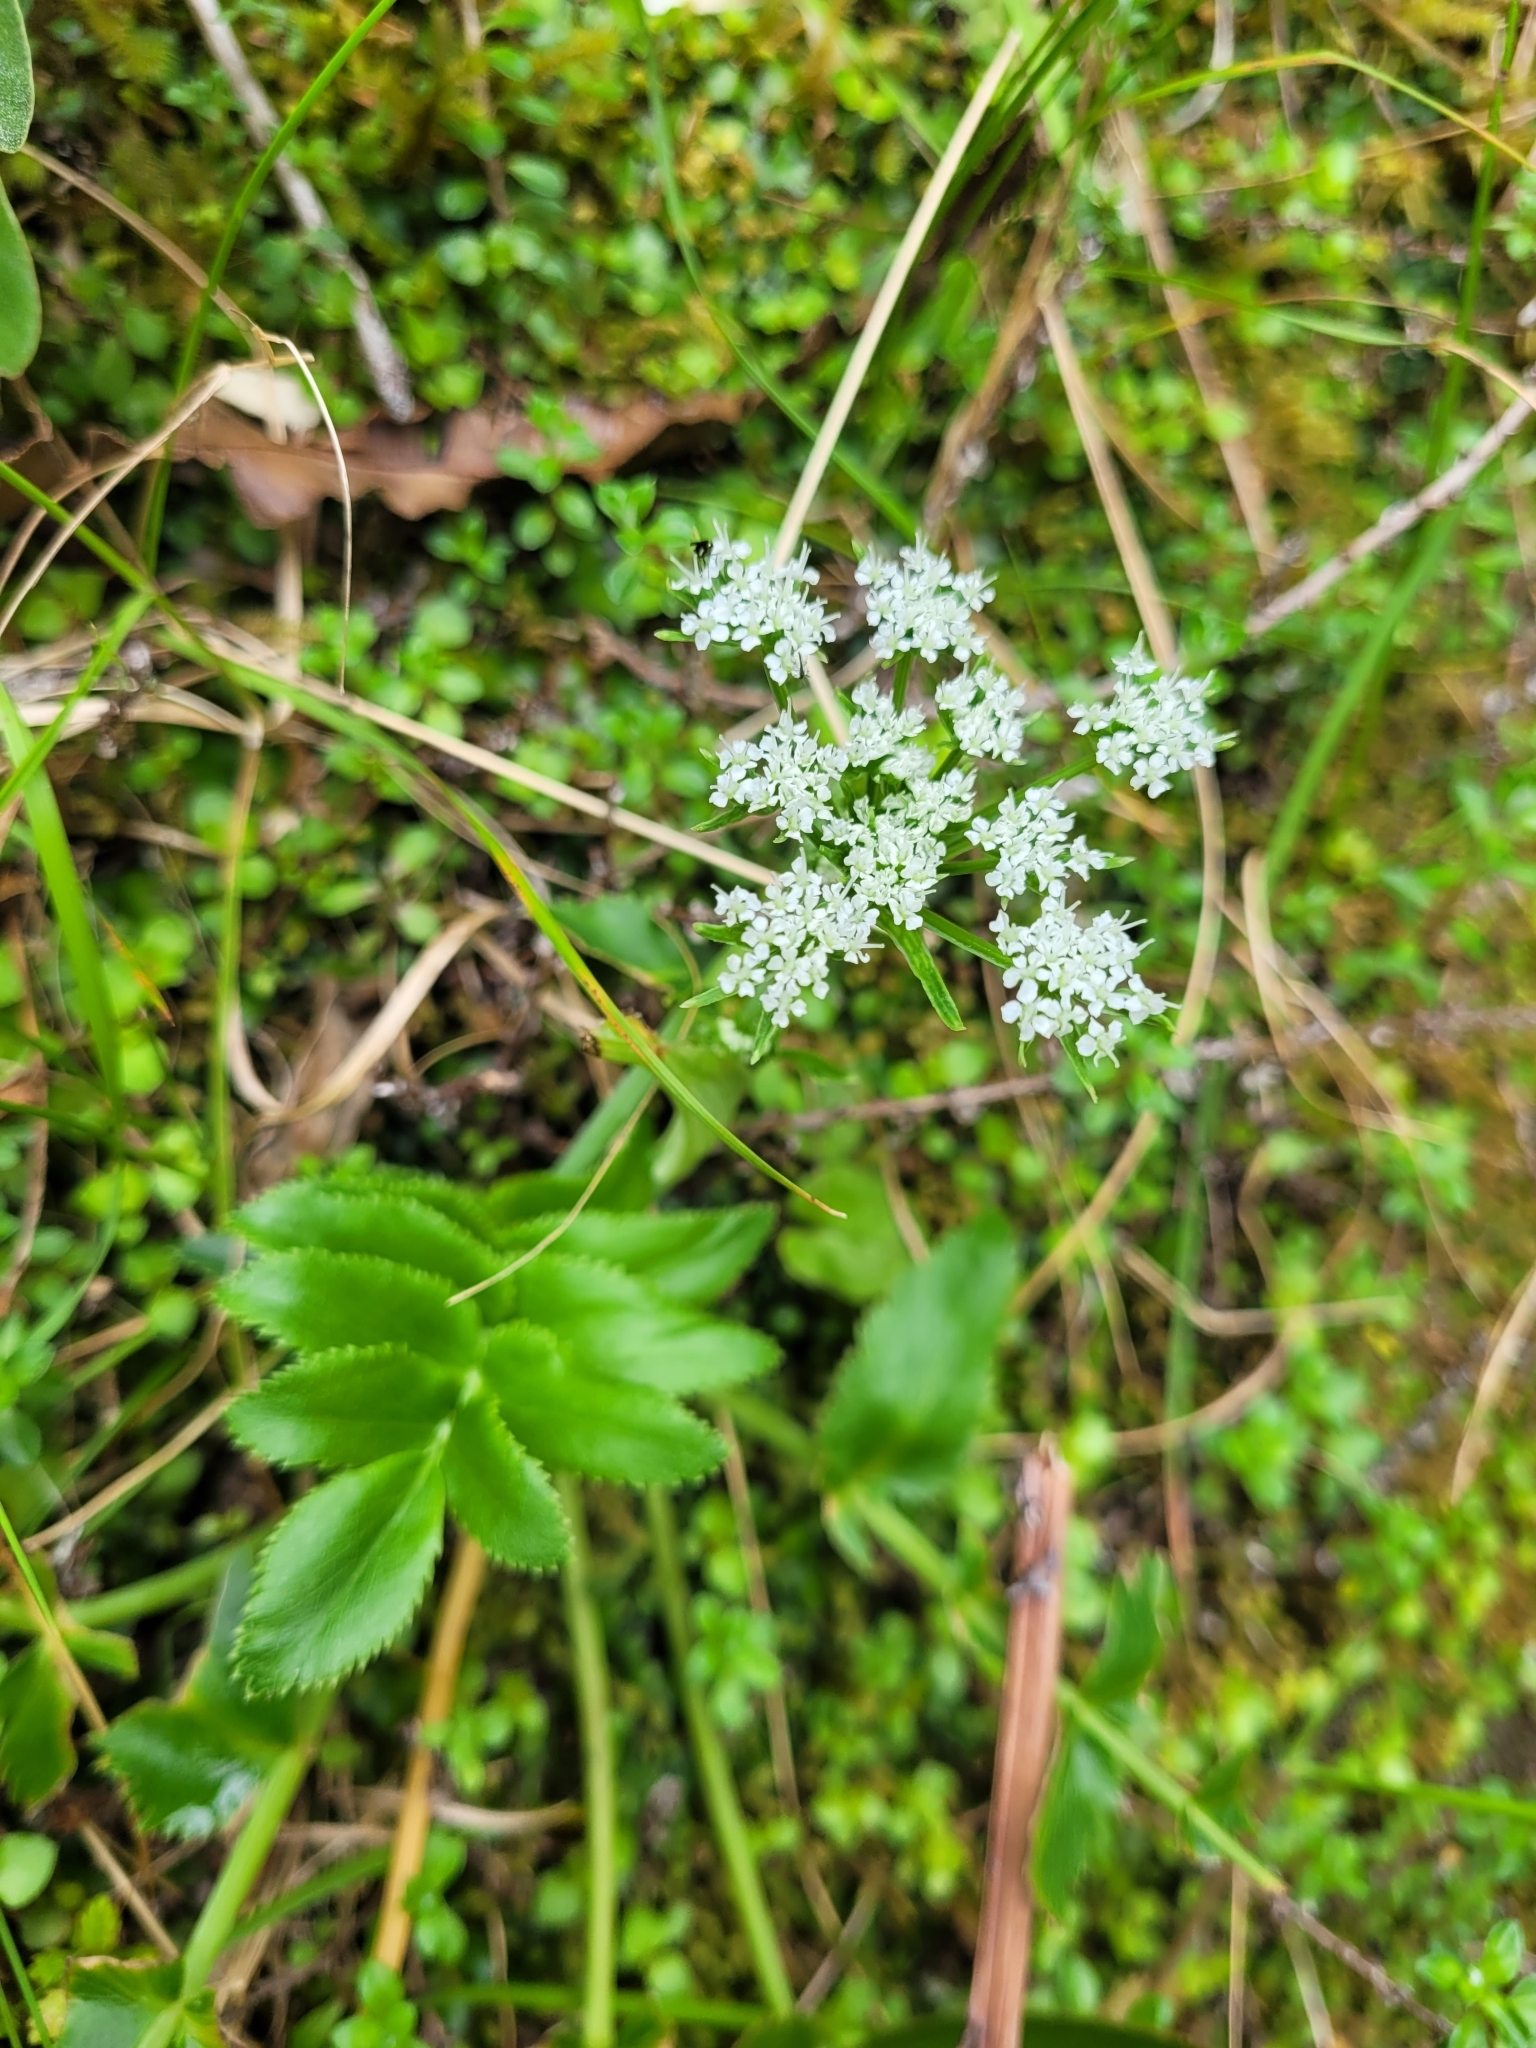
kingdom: Plantae
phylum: Tracheophyta
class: Magnoliopsida
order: Apiales
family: Apiaceae
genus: Gingidia
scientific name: Gingidia montana
